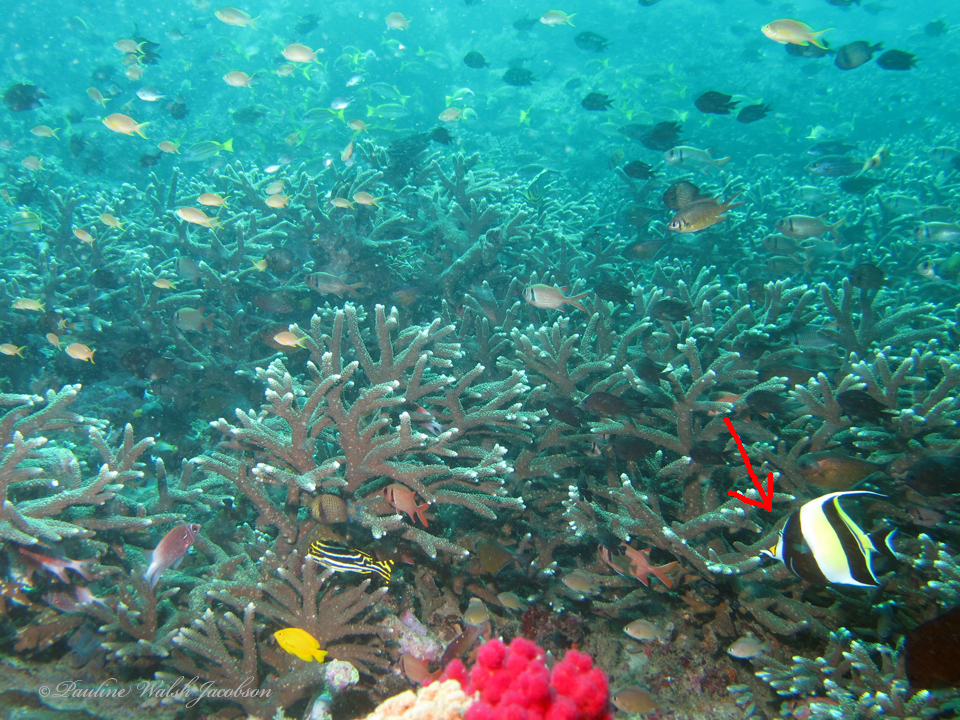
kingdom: Animalia
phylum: Chordata
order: Perciformes
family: Zanclidae
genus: Zanclus
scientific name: Zanclus cornutus
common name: Moorish idol
